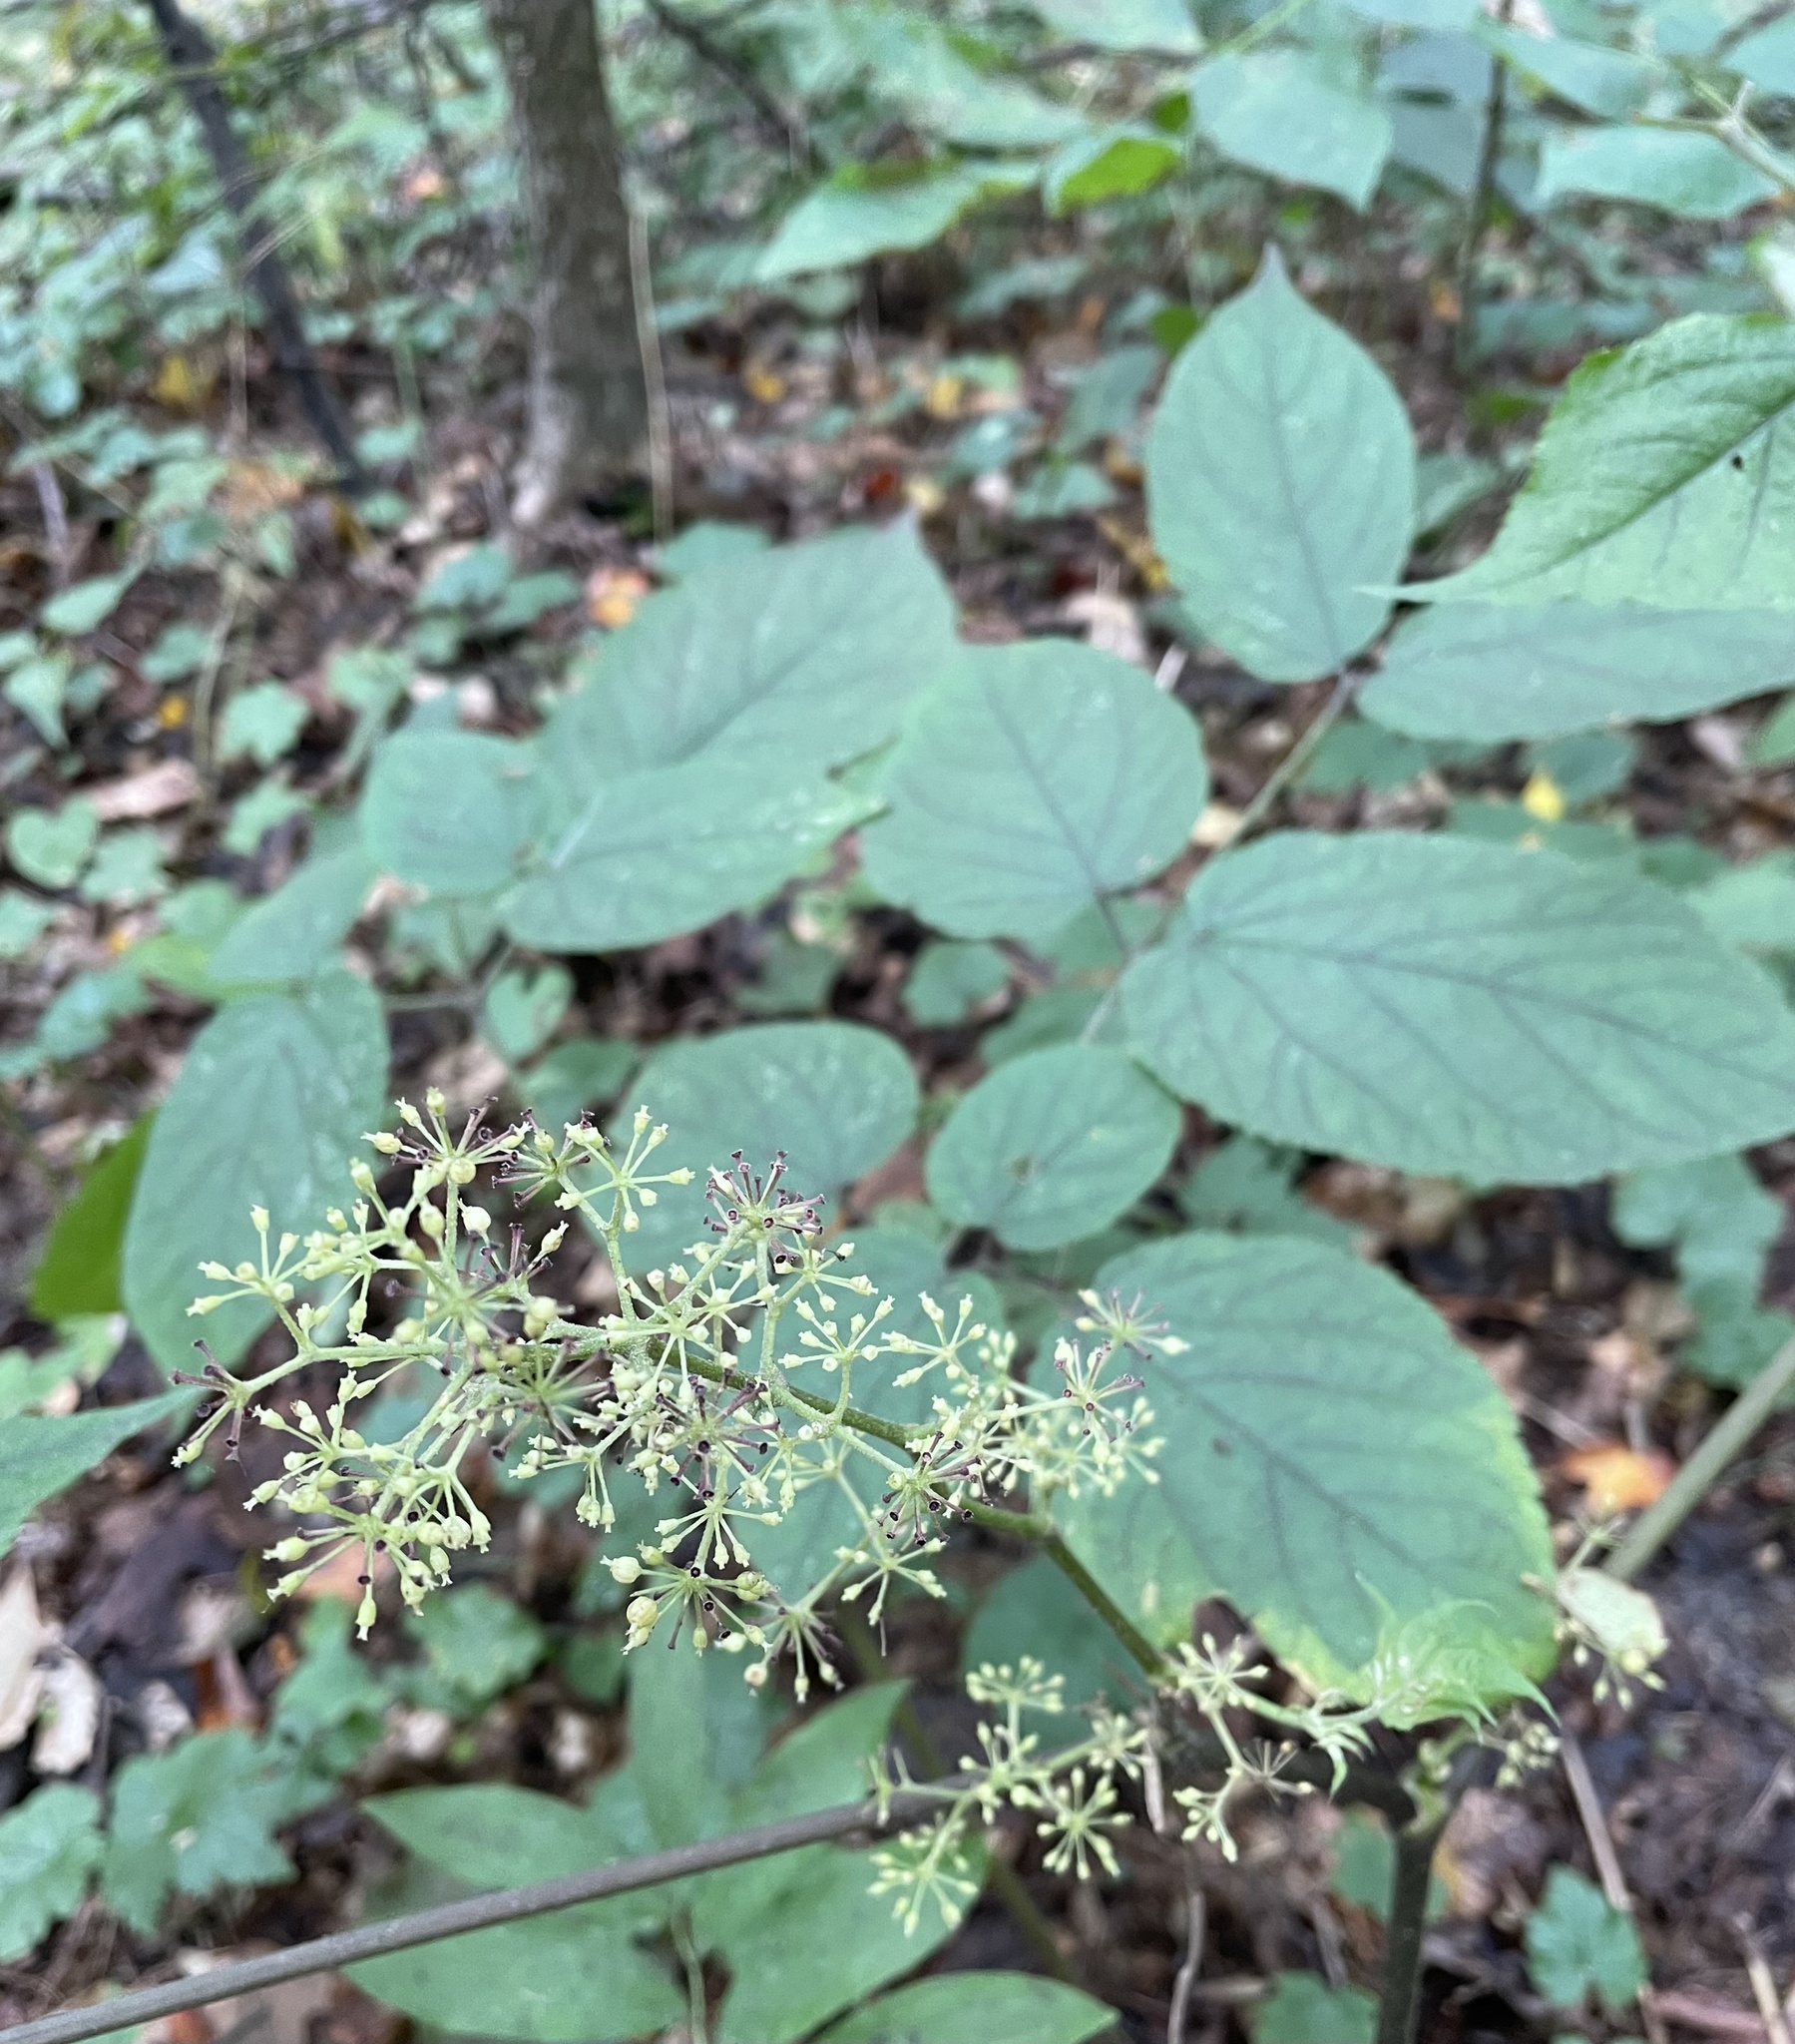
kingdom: Plantae
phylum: Tracheophyta
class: Magnoliopsida
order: Apiales
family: Araliaceae
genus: Aralia
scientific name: Aralia racemosa
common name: American-spikenard
